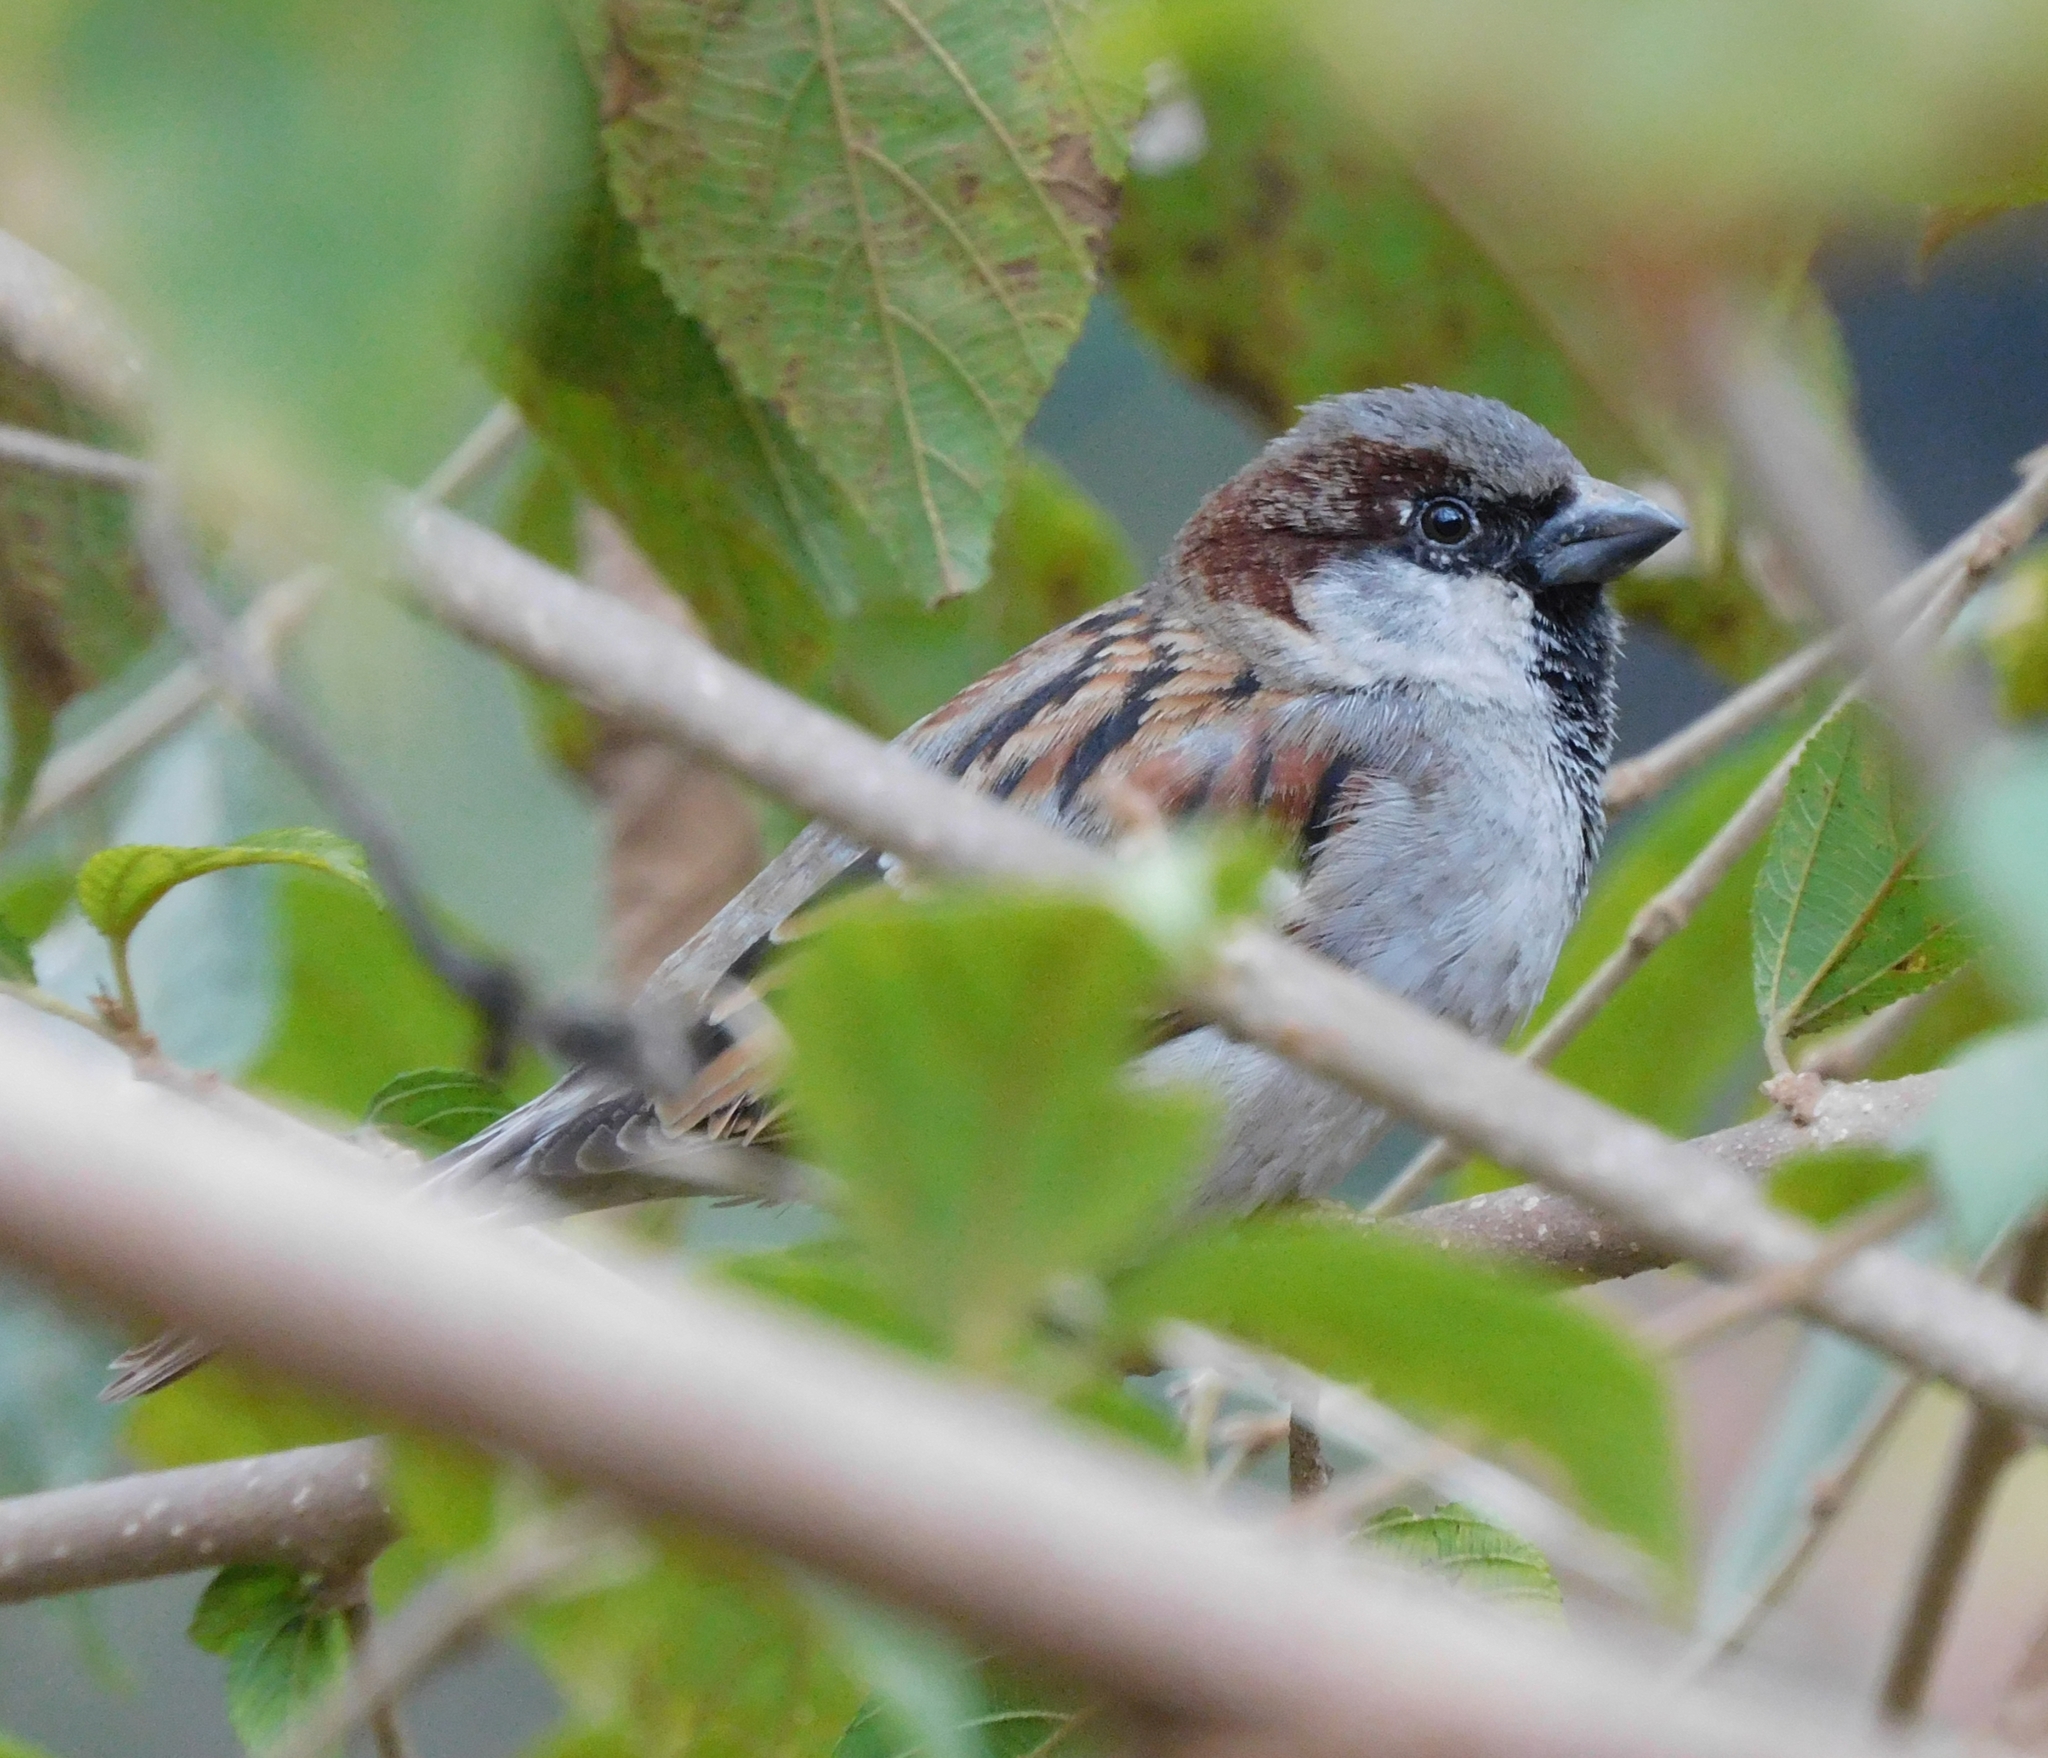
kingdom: Animalia
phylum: Chordata
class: Aves
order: Passeriformes
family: Passeridae
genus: Passer
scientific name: Passer domesticus
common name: House sparrow
